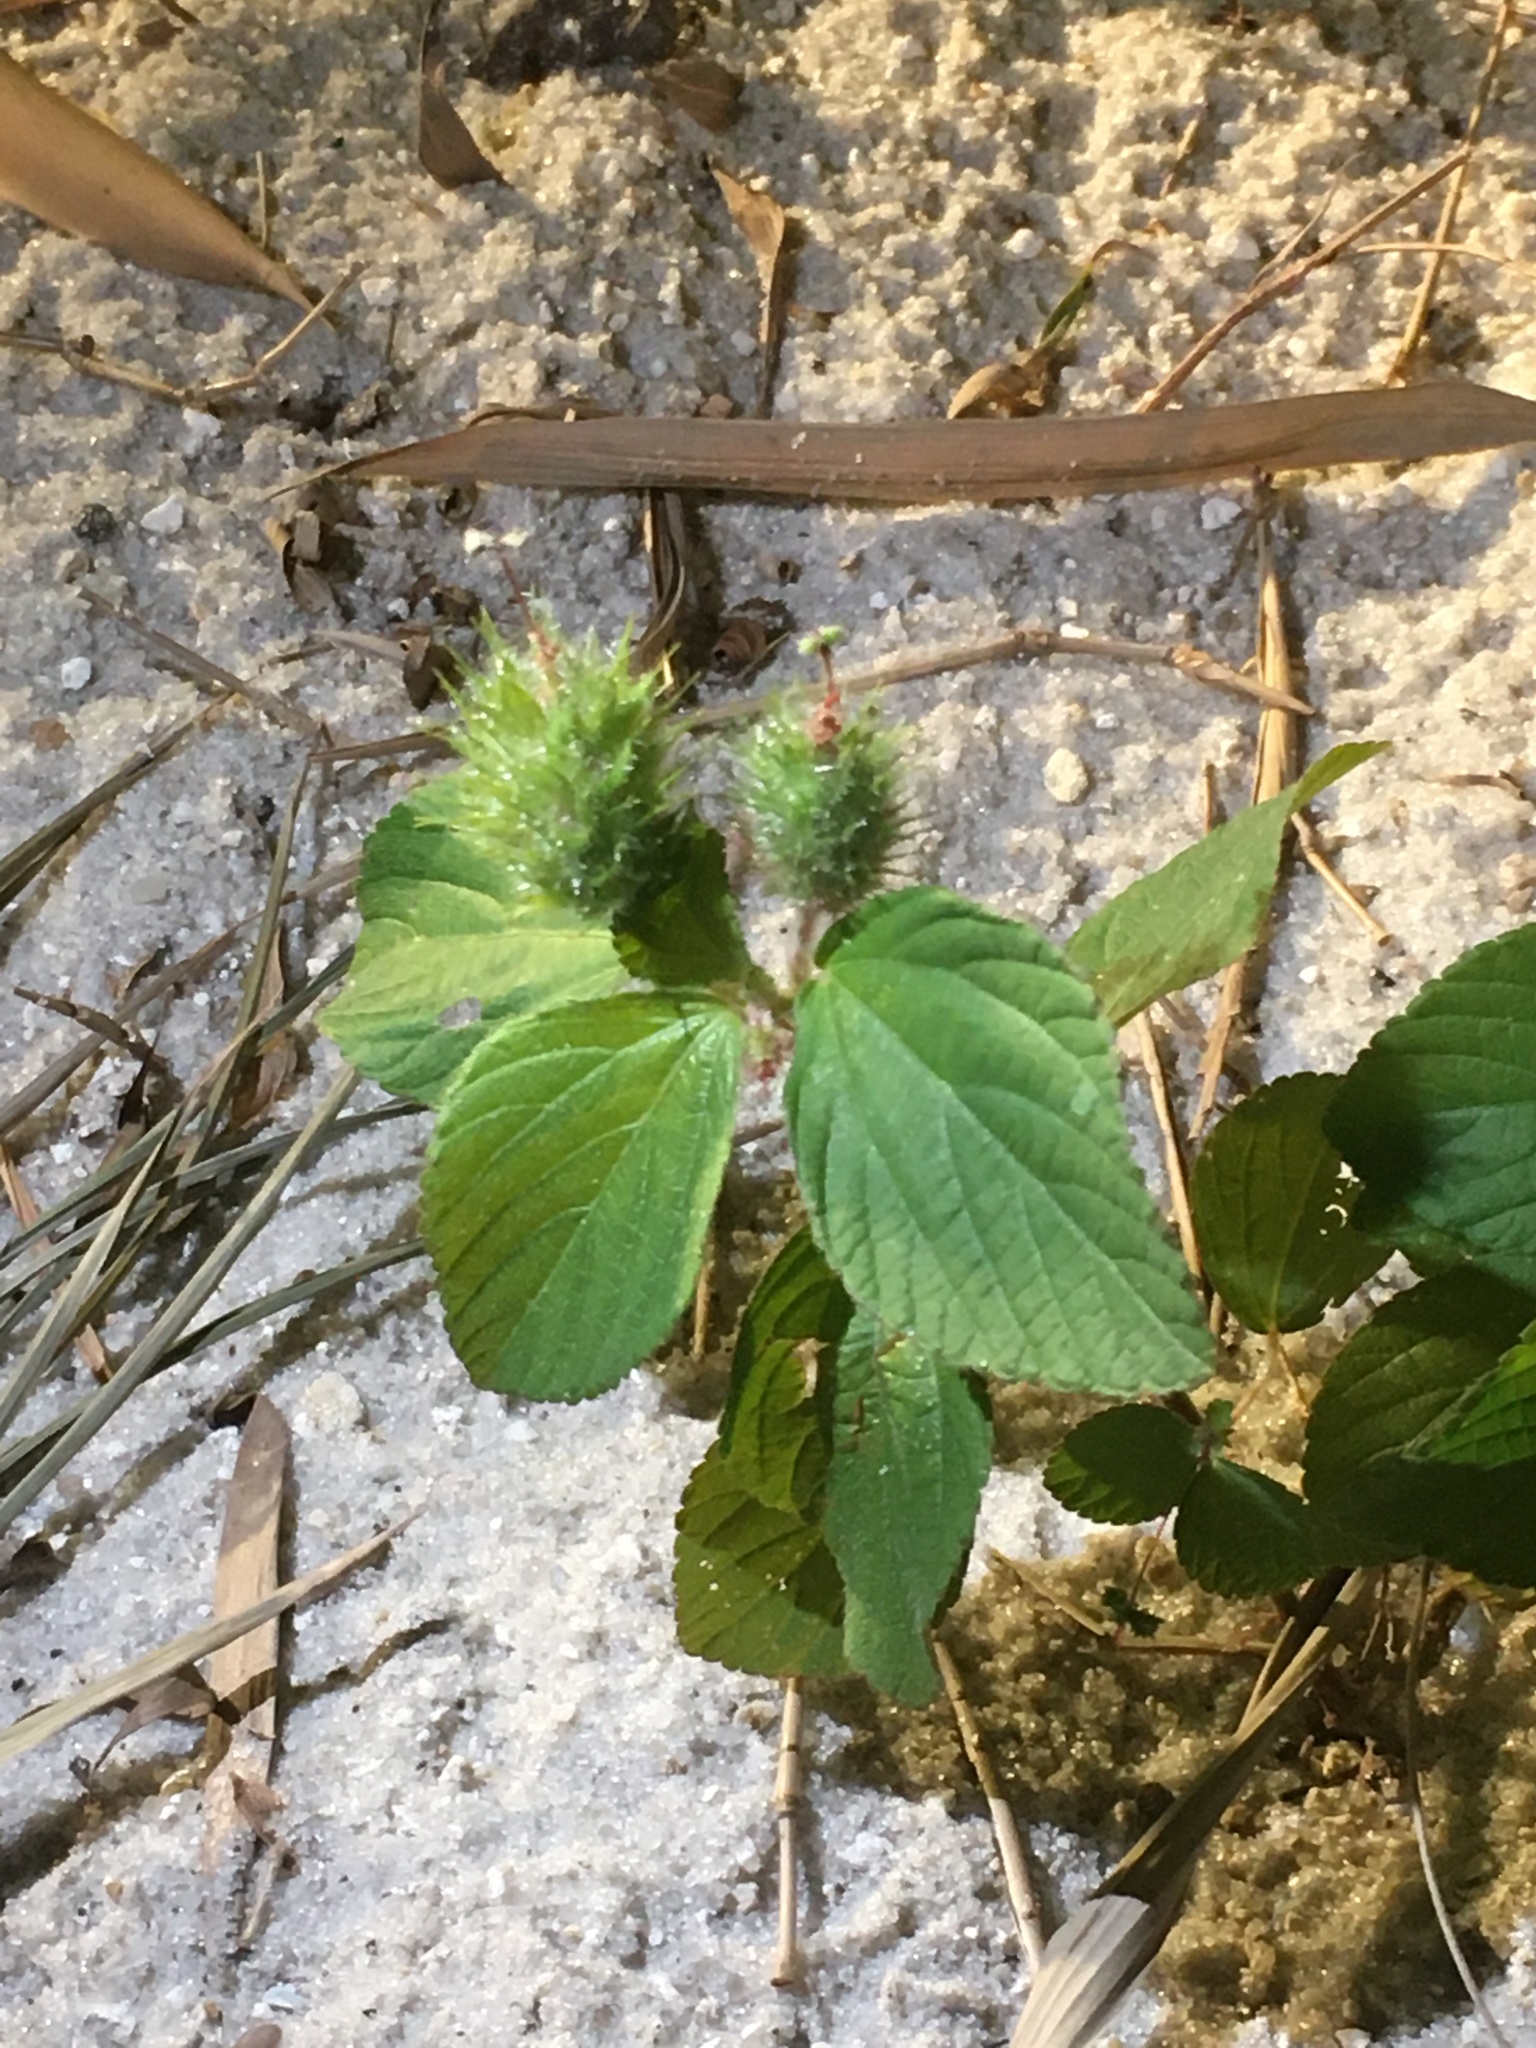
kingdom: Plantae
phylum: Tracheophyta
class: Magnoliopsida
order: Malpighiales
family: Euphorbiaceae
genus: Acalypha
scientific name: Acalypha arvensis
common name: Field copperleaf
